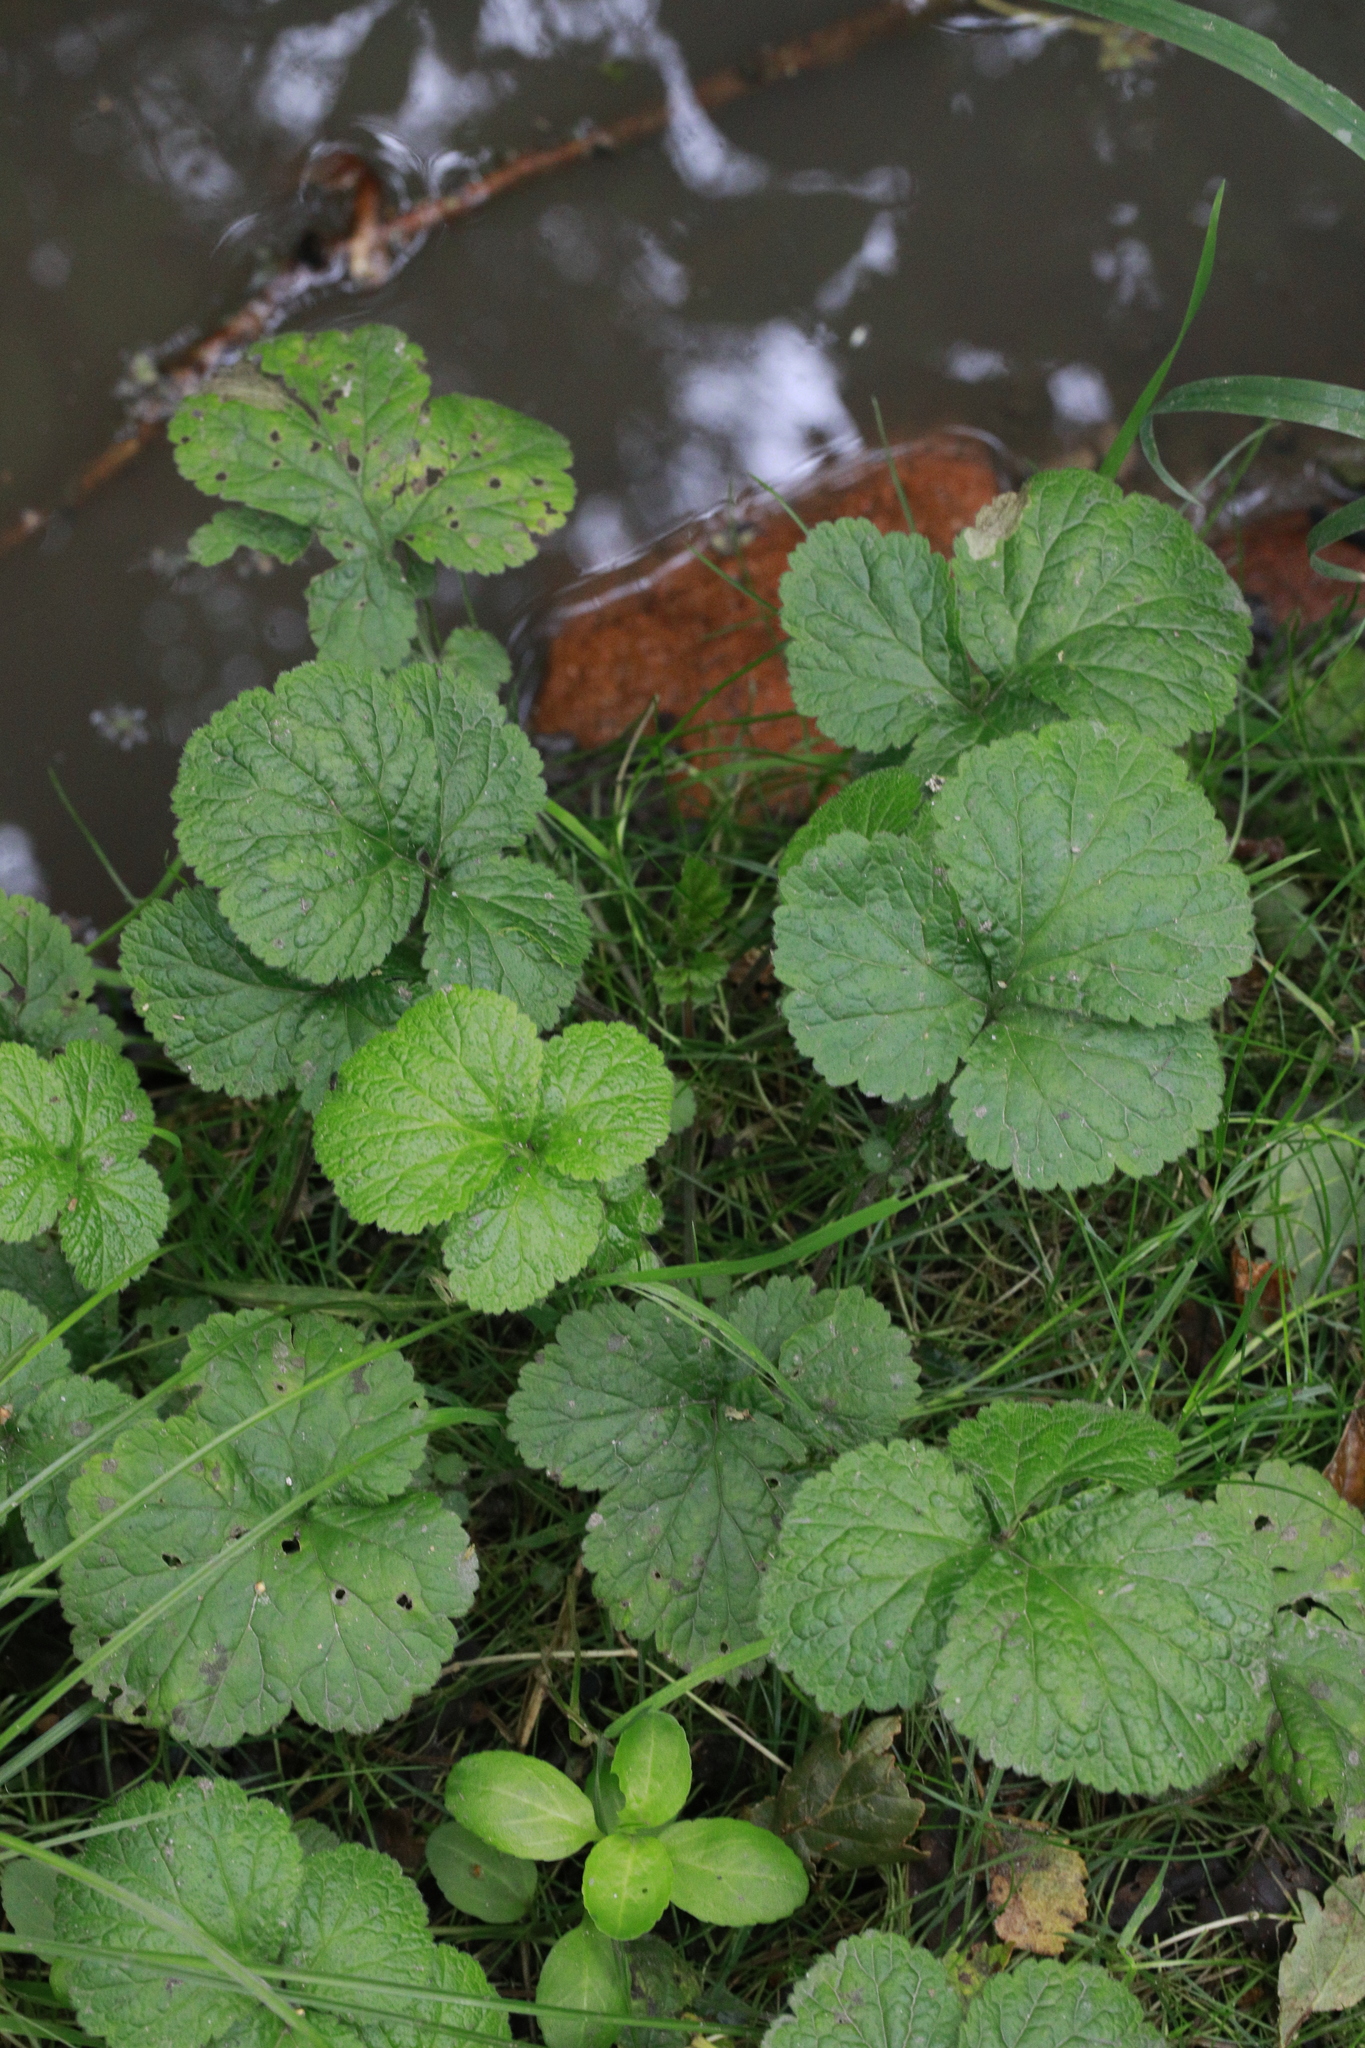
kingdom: Plantae
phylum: Tracheophyta
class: Magnoliopsida
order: Rosales
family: Rosaceae
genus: Geum
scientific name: Geum urbanum
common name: Wood avens
